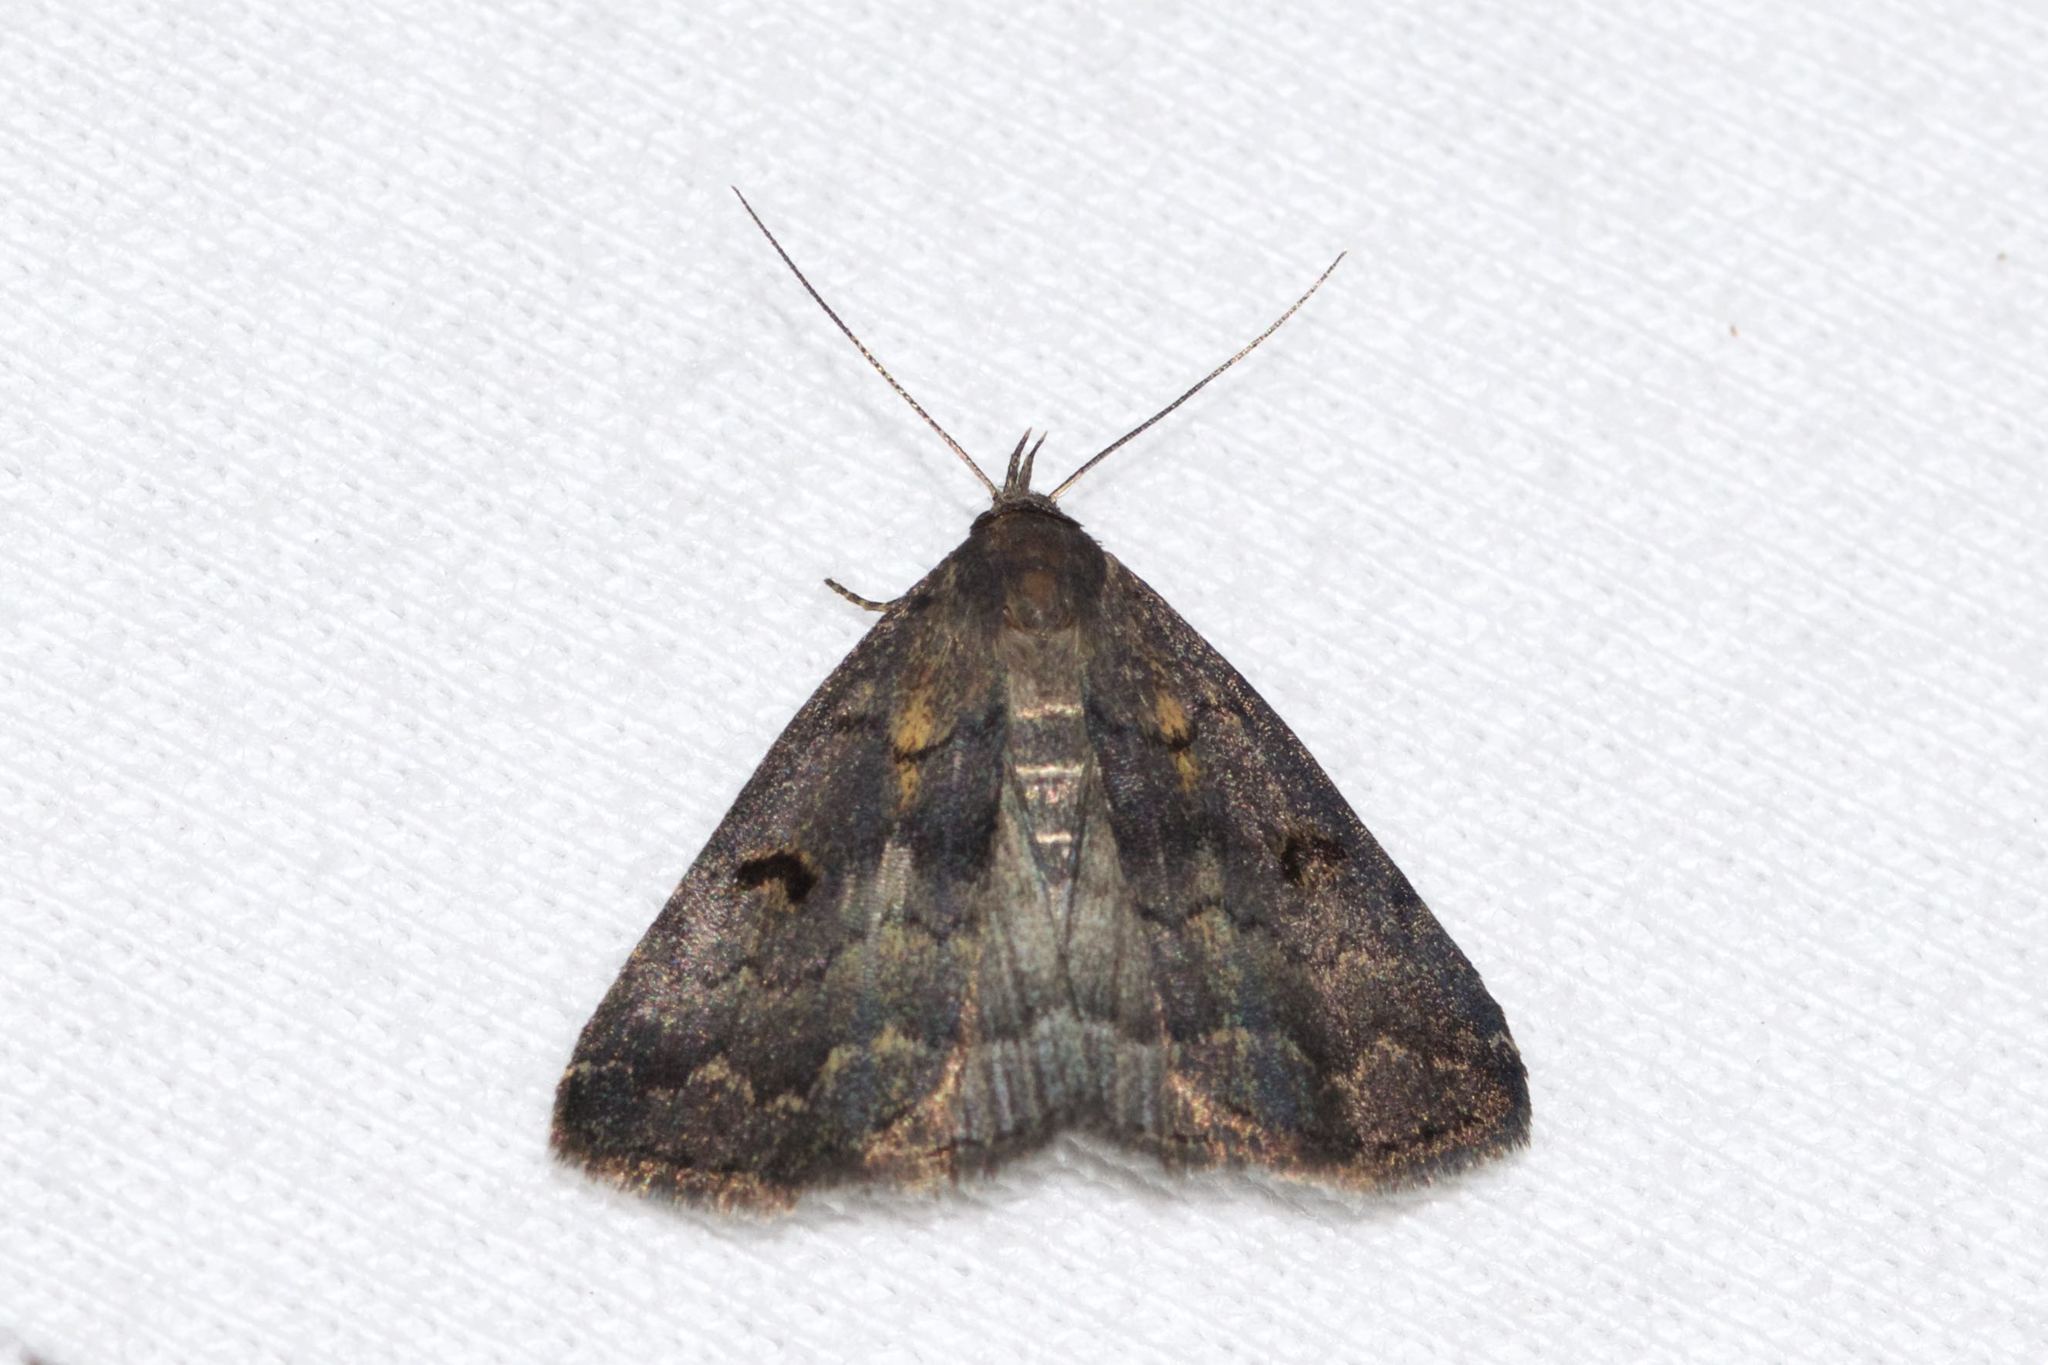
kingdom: Animalia
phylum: Arthropoda
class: Insecta
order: Lepidoptera
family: Erebidae
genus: Phalaenostola
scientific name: Phalaenostola hanhami
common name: Hanham's owlet
